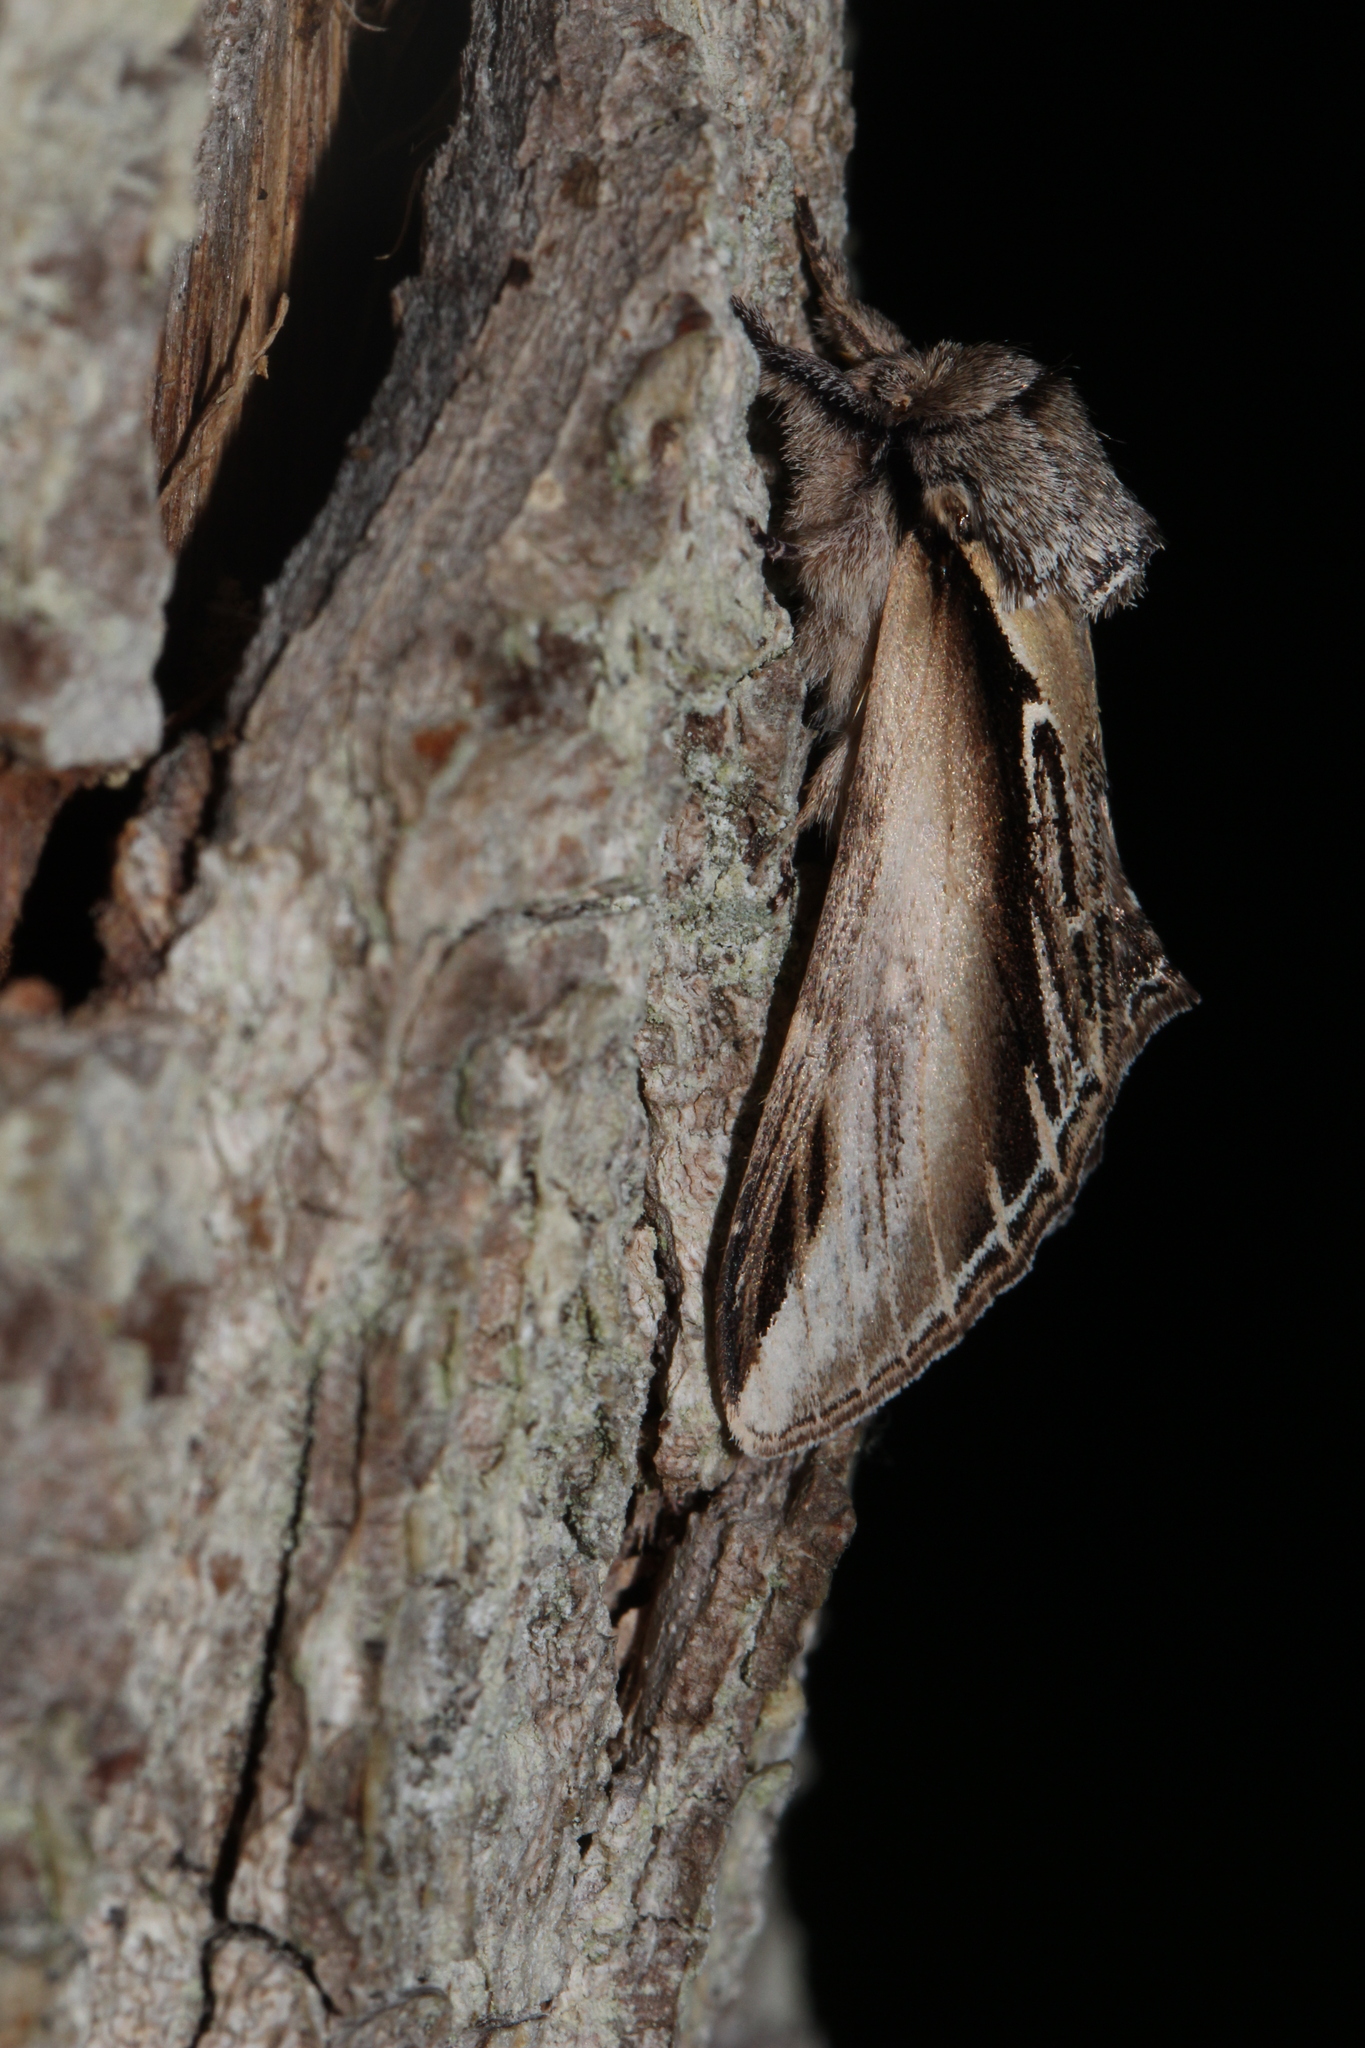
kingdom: Animalia
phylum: Arthropoda
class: Insecta
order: Lepidoptera
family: Notodontidae
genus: Pheosia
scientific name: Pheosia tremula
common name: Swallow prominent
